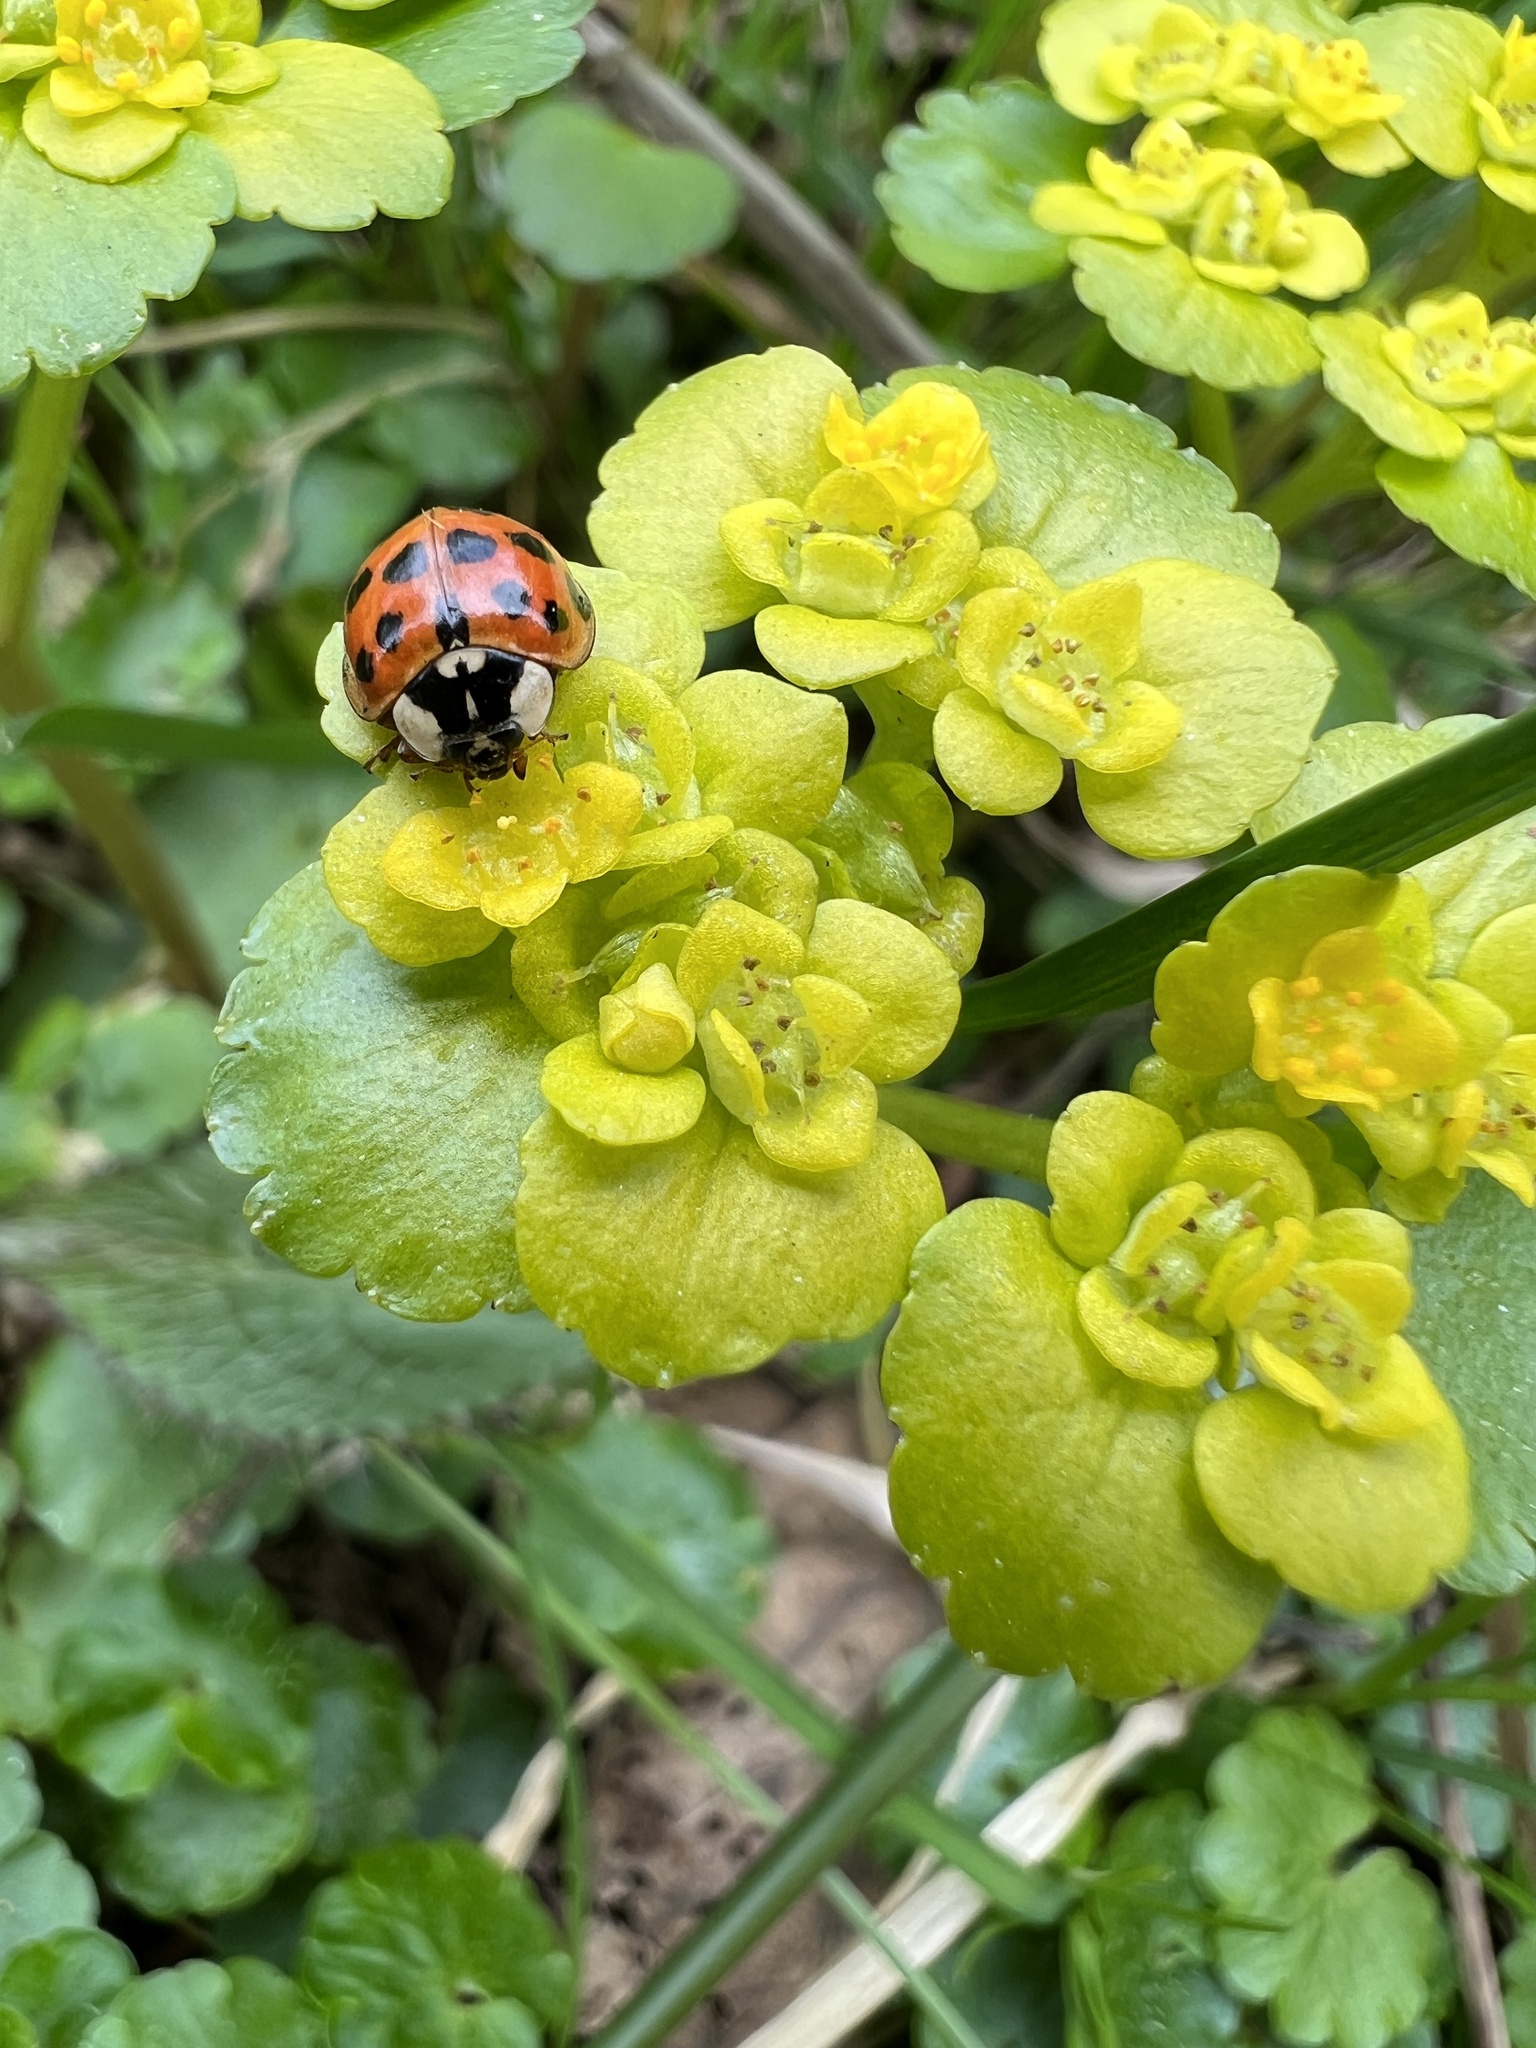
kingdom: Animalia
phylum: Arthropoda
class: Insecta
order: Coleoptera
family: Coccinellidae
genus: Harmonia
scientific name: Harmonia axyridis
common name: Harlequin ladybird
